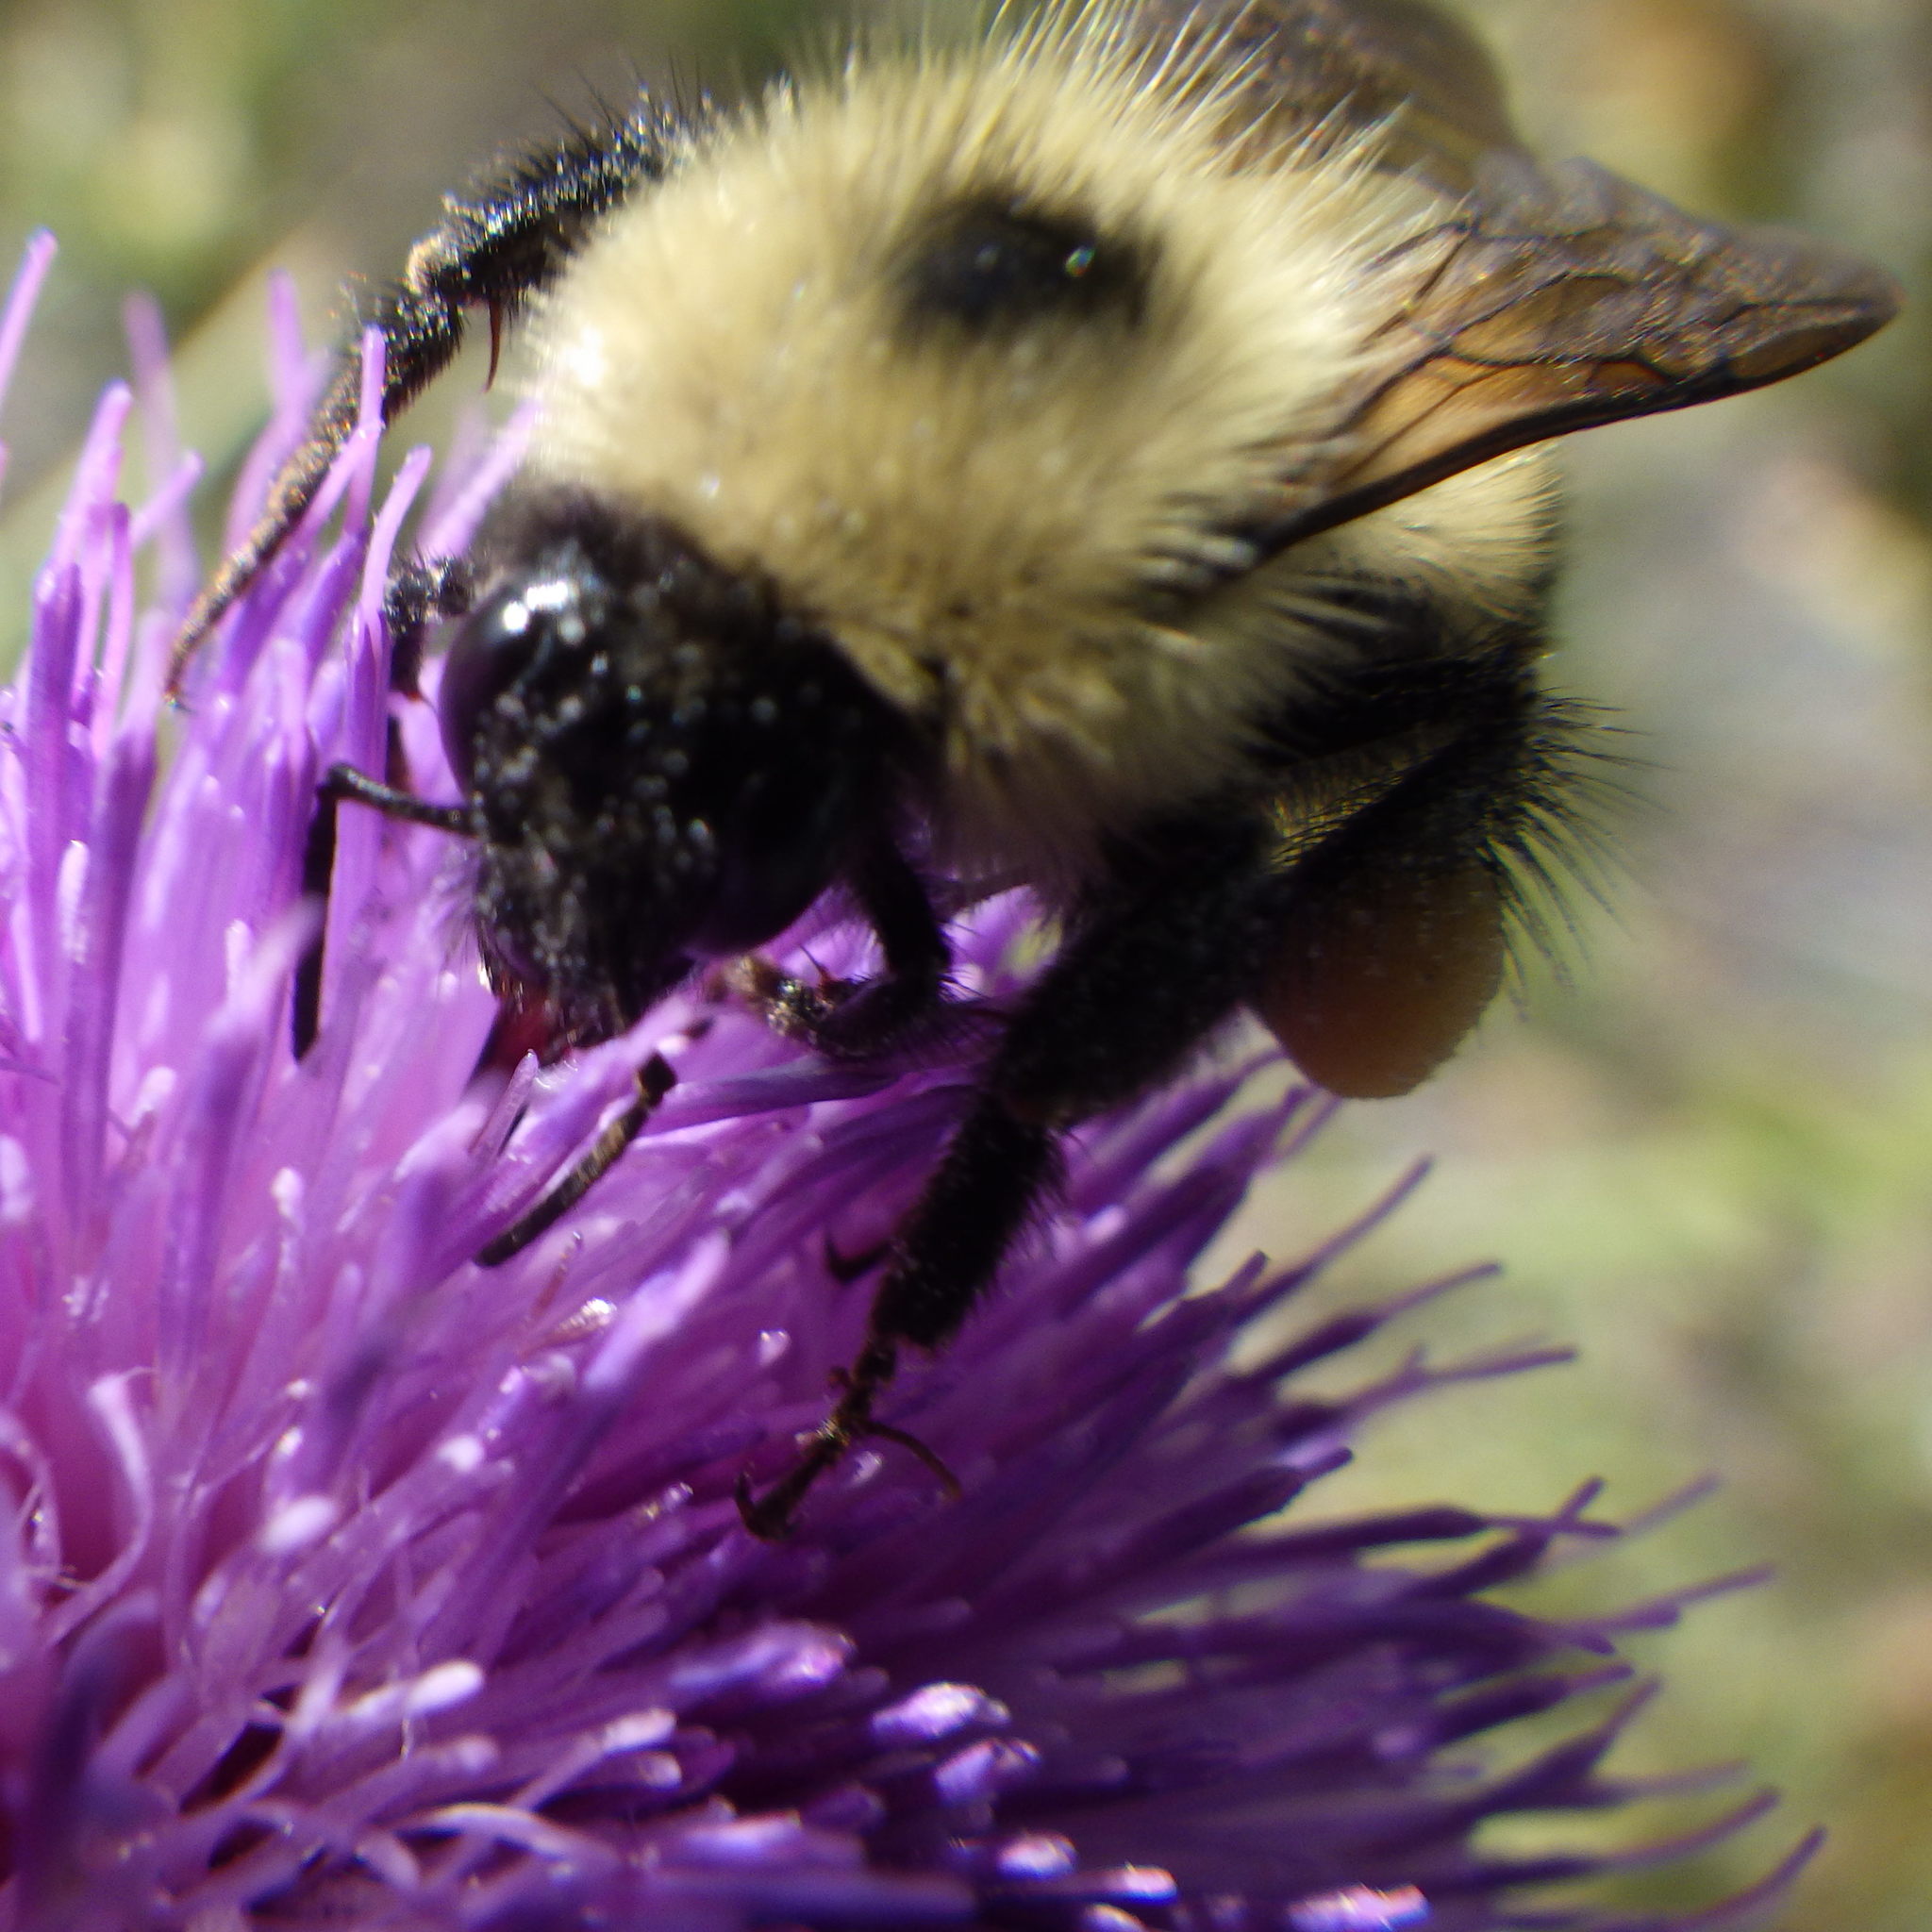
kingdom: Animalia
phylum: Arthropoda
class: Insecta
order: Hymenoptera
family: Apidae
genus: Bombus
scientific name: Bombus vagans
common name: Half-black bumble bee
